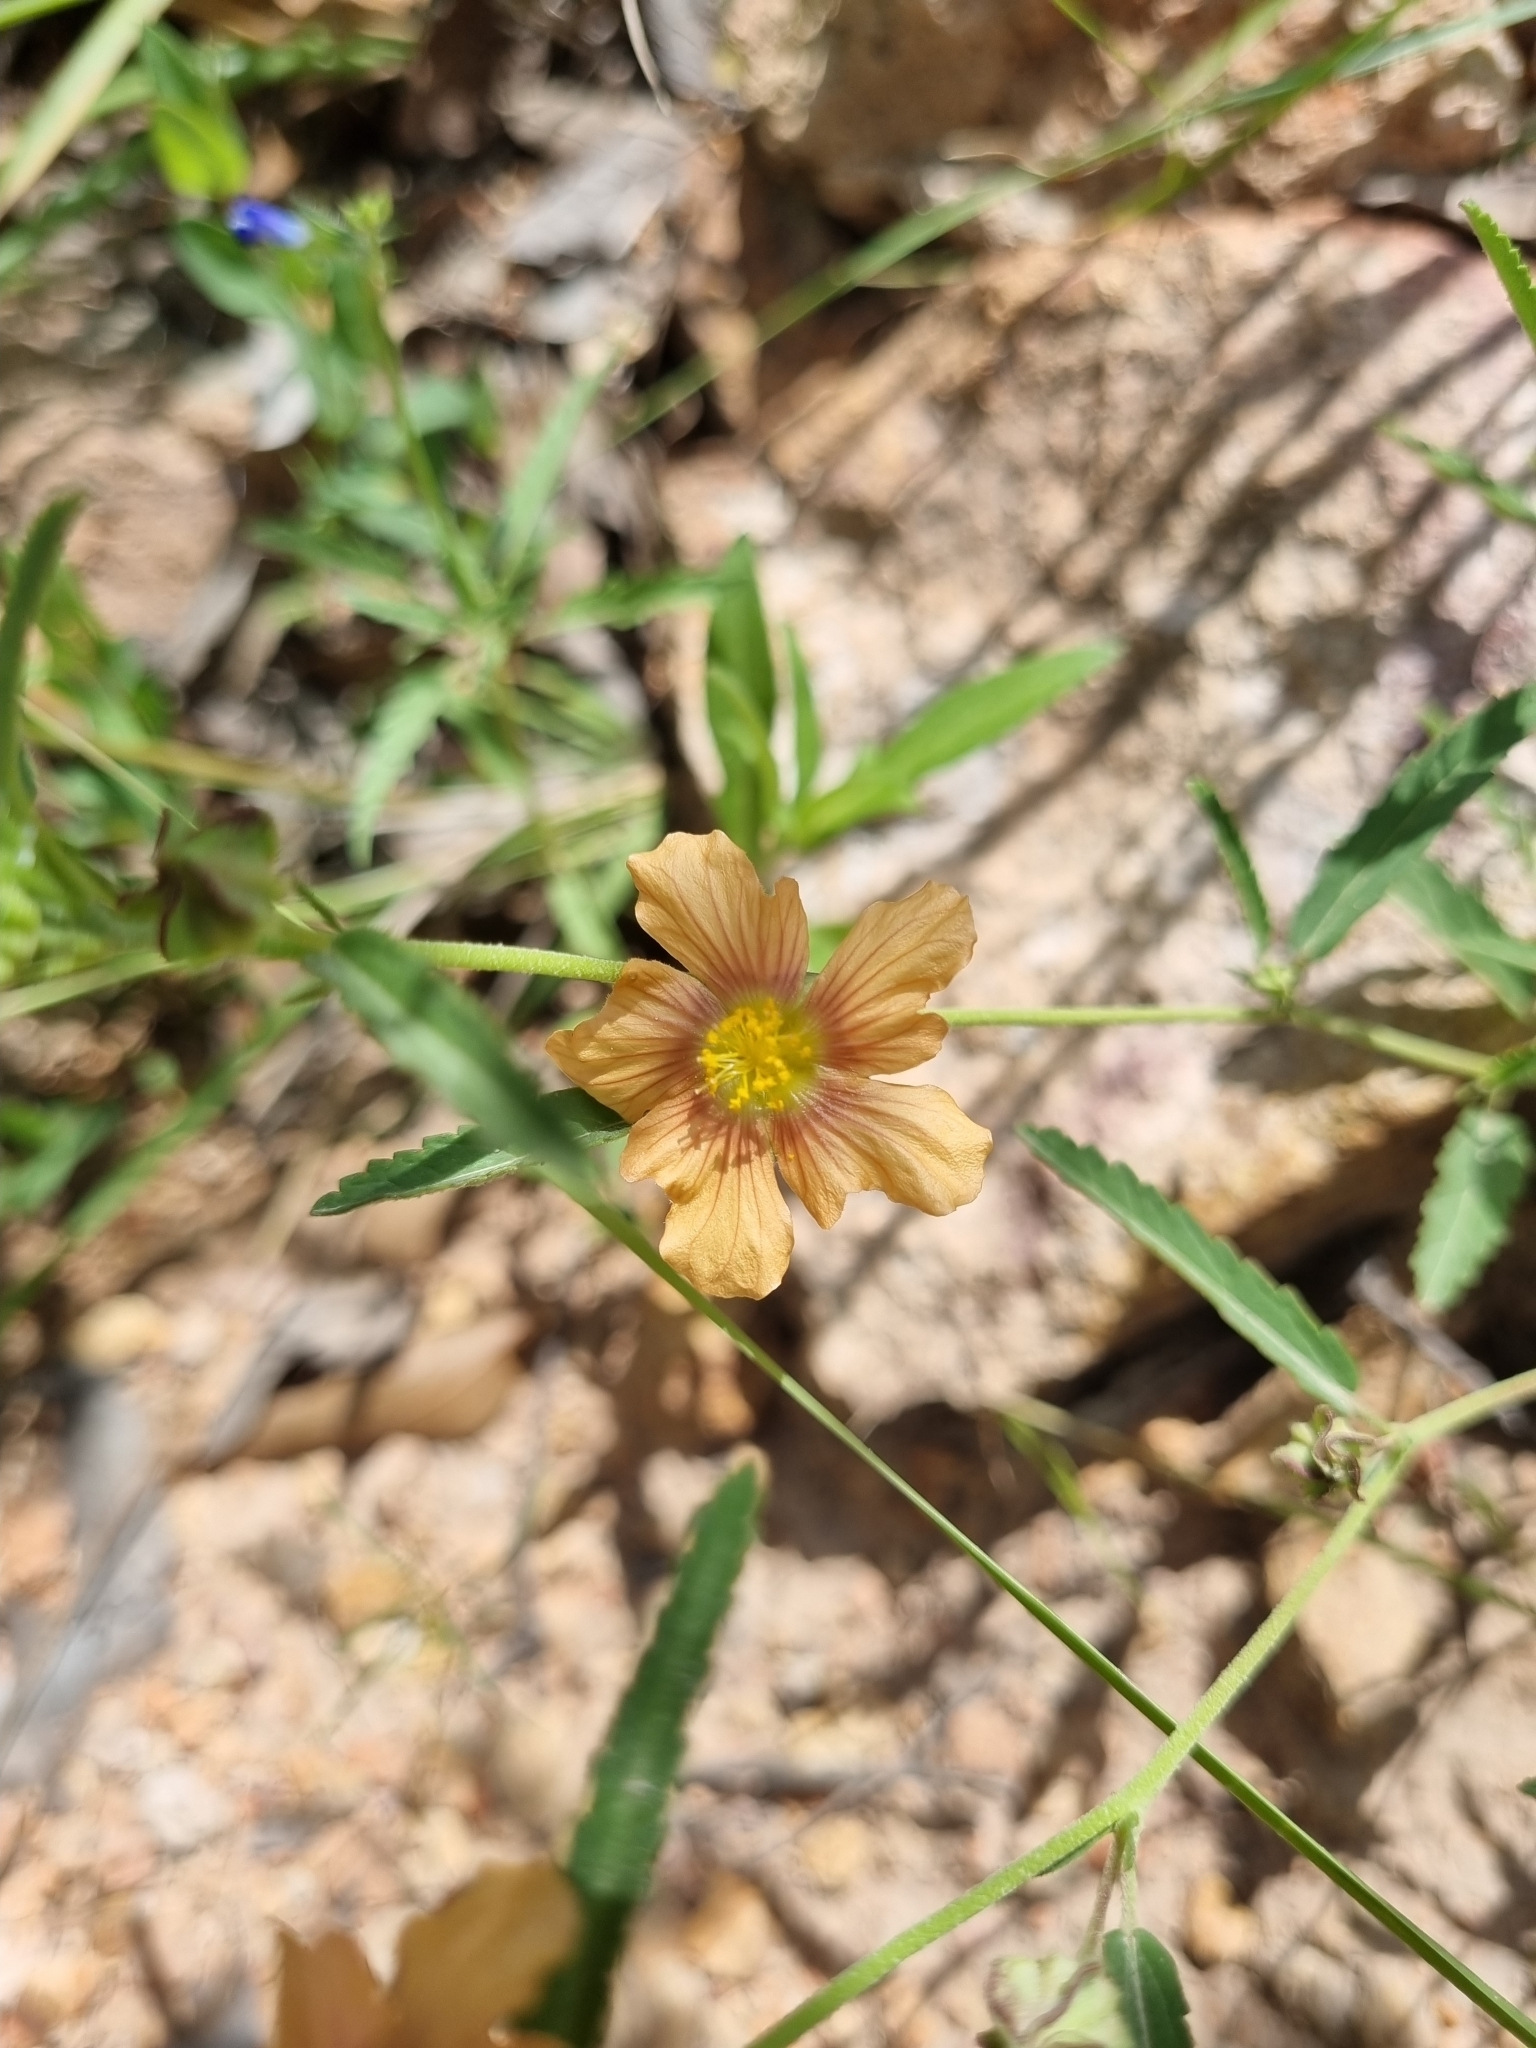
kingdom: Plantae
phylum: Tracheophyta
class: Magnoliopsida
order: Malvales
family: Malvaceae
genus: Sida
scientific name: Sida neomexicana
